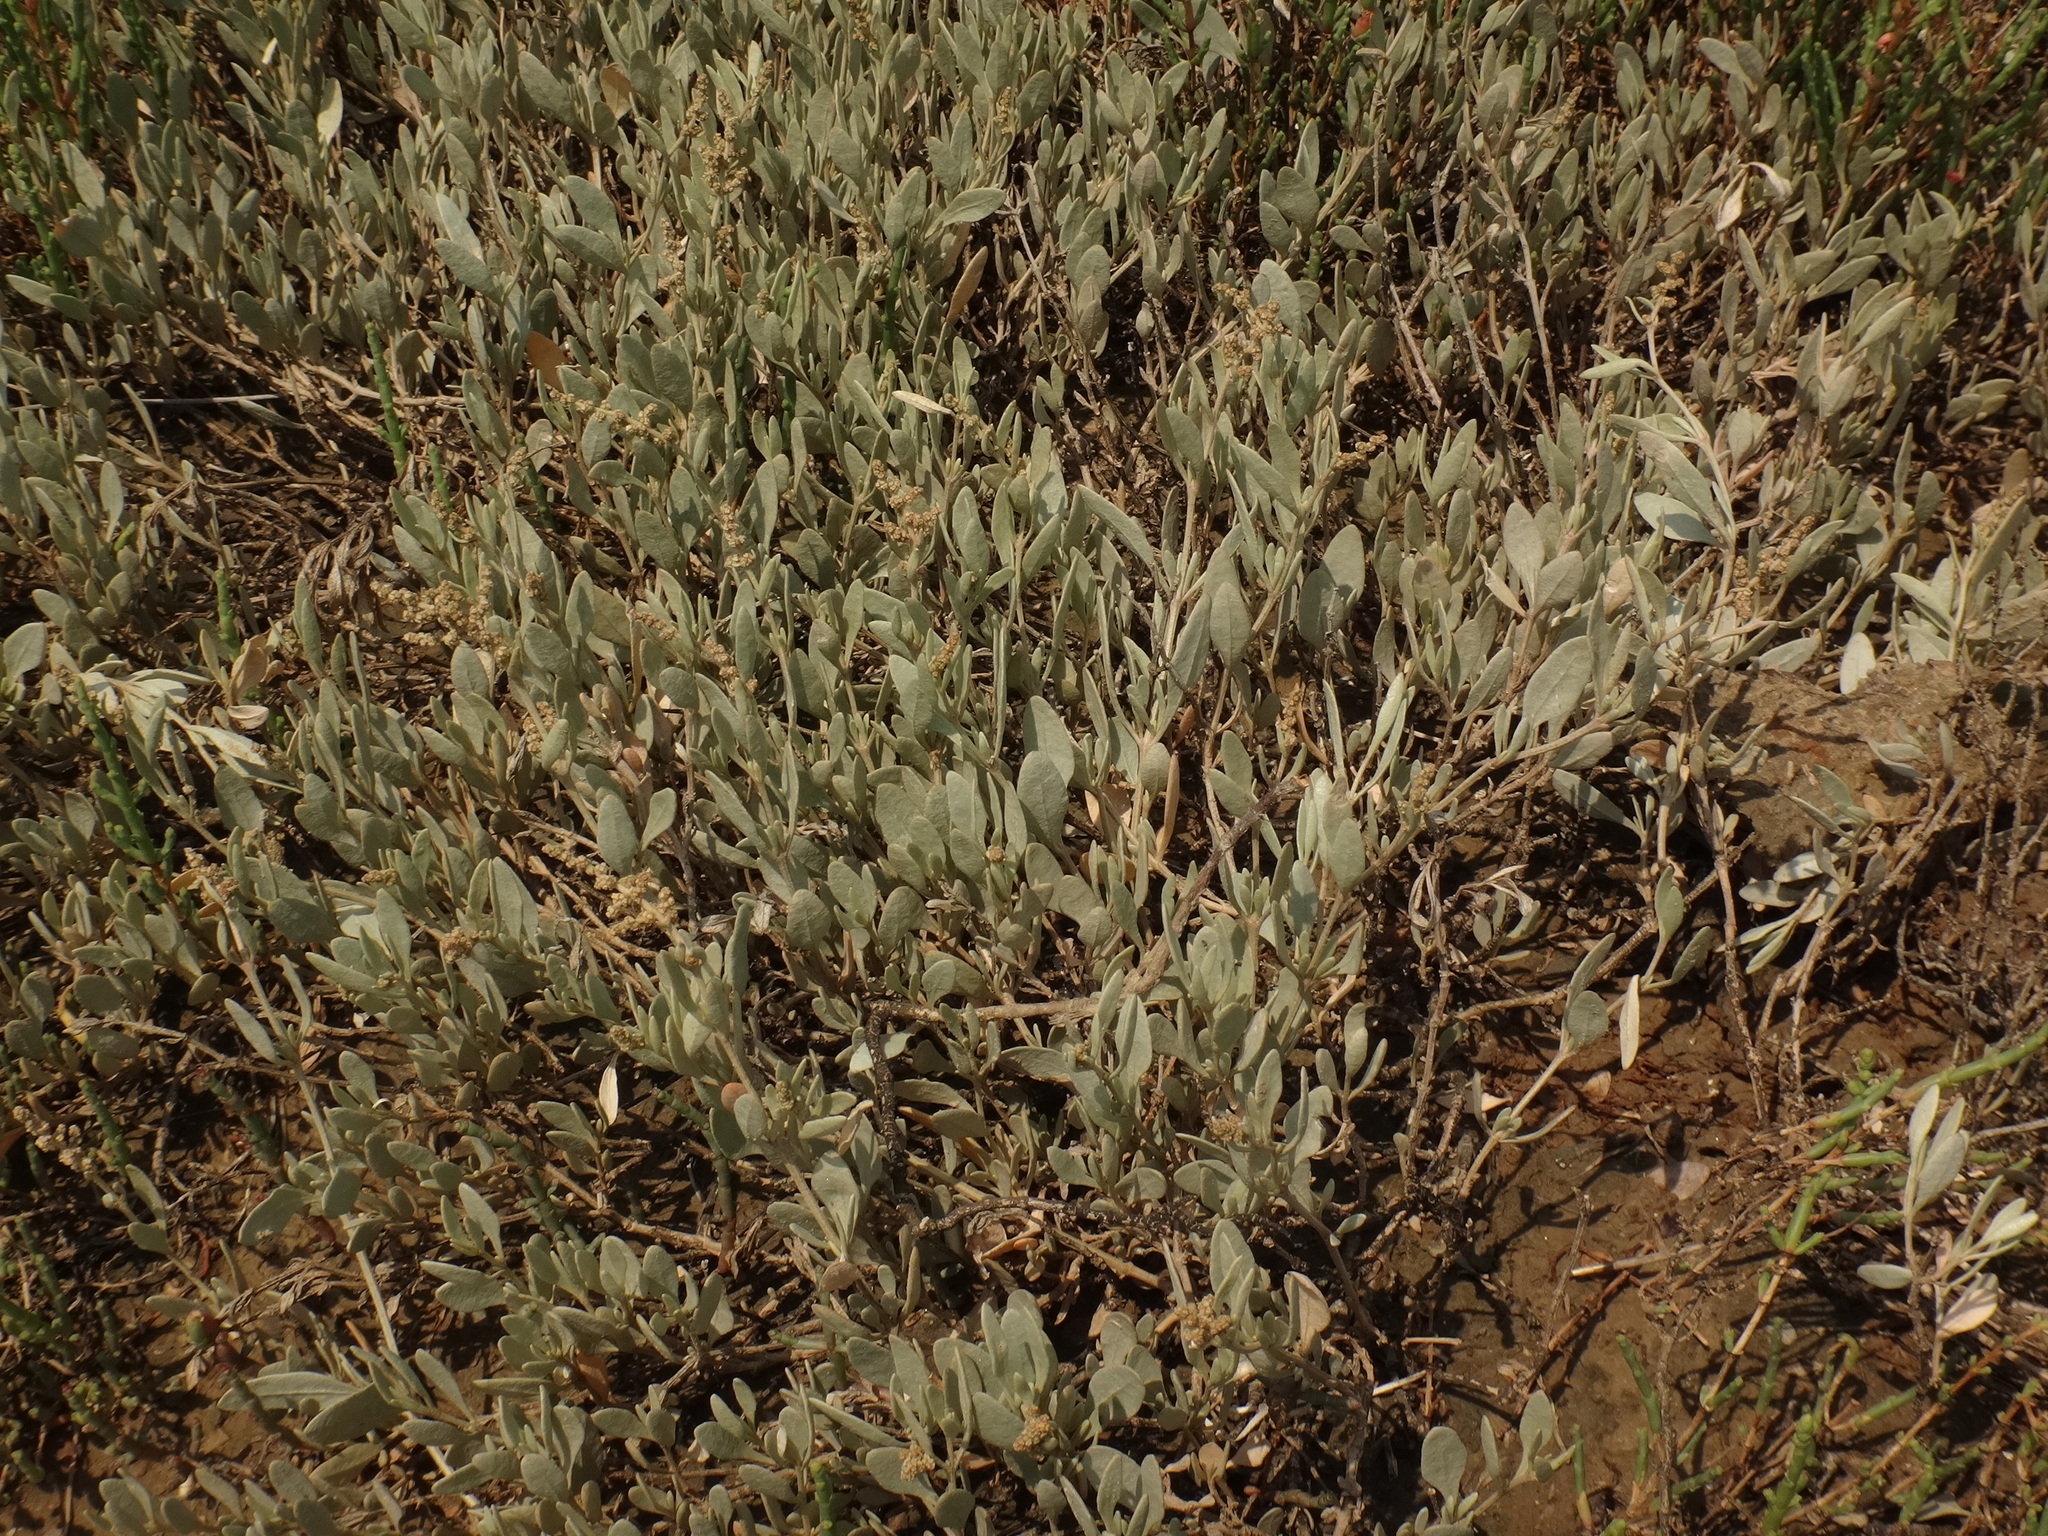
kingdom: Plantae
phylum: Tracheophyta
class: Magnoliopsida
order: Caryophyllales
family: Amaranthaceae
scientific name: Amaranthaceae
